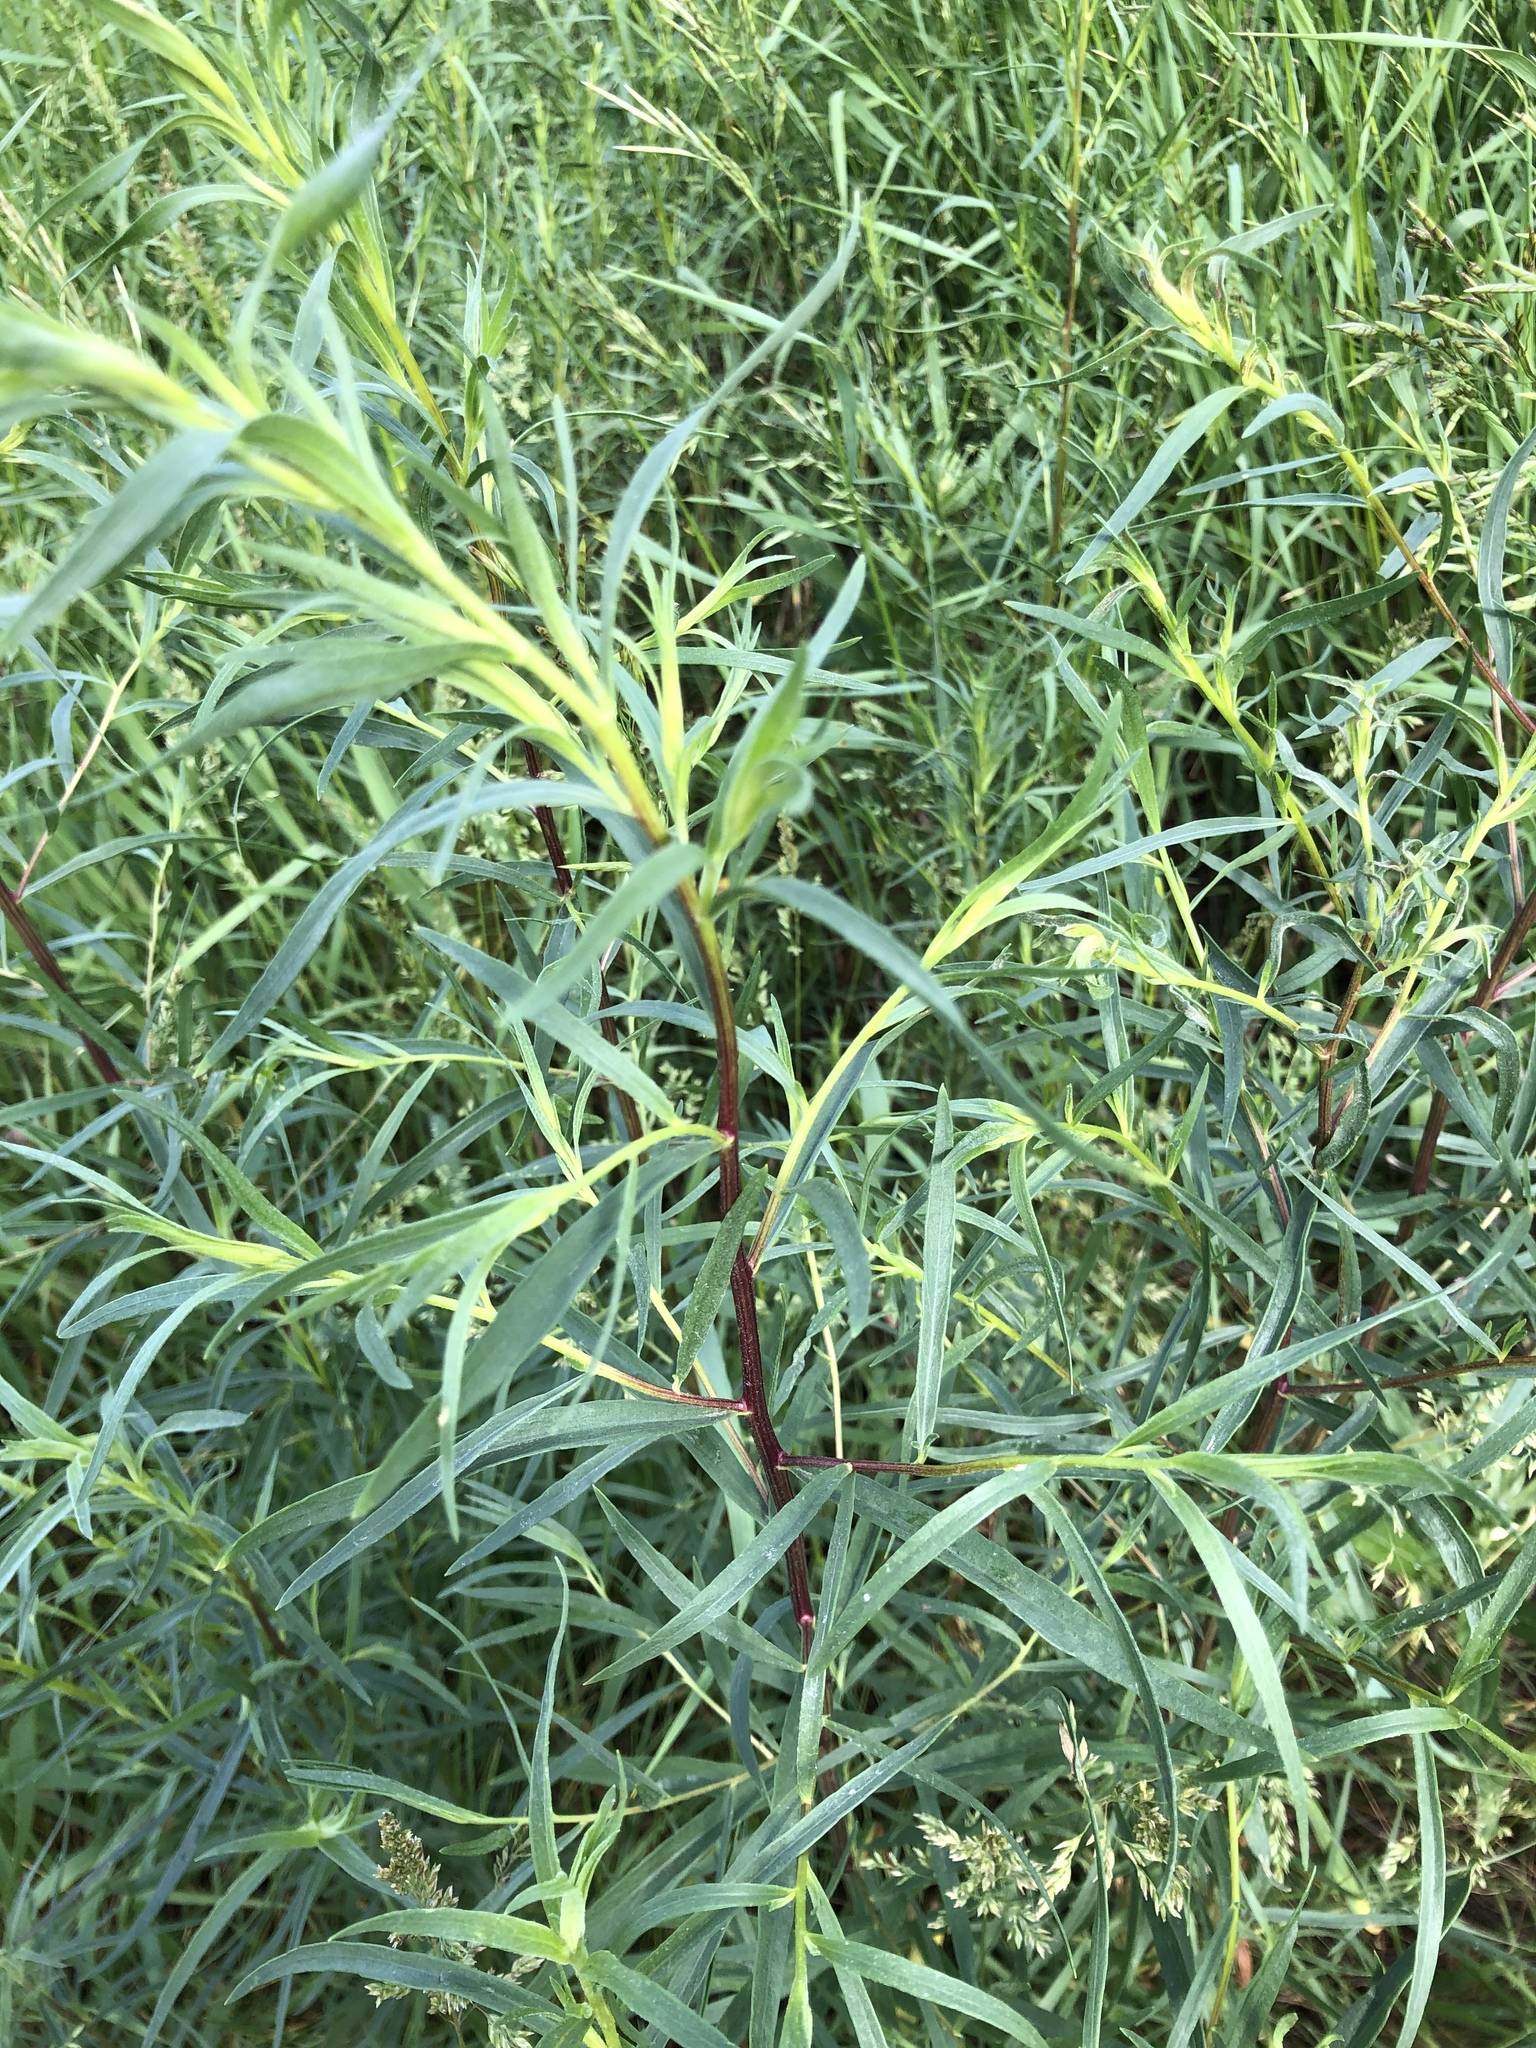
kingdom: Plantae
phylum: Tracheophyta
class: Magnoliopsida
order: Asterales
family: Asteraceae
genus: Artemisia
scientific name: Artemisia dracunculus
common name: Tarragon
